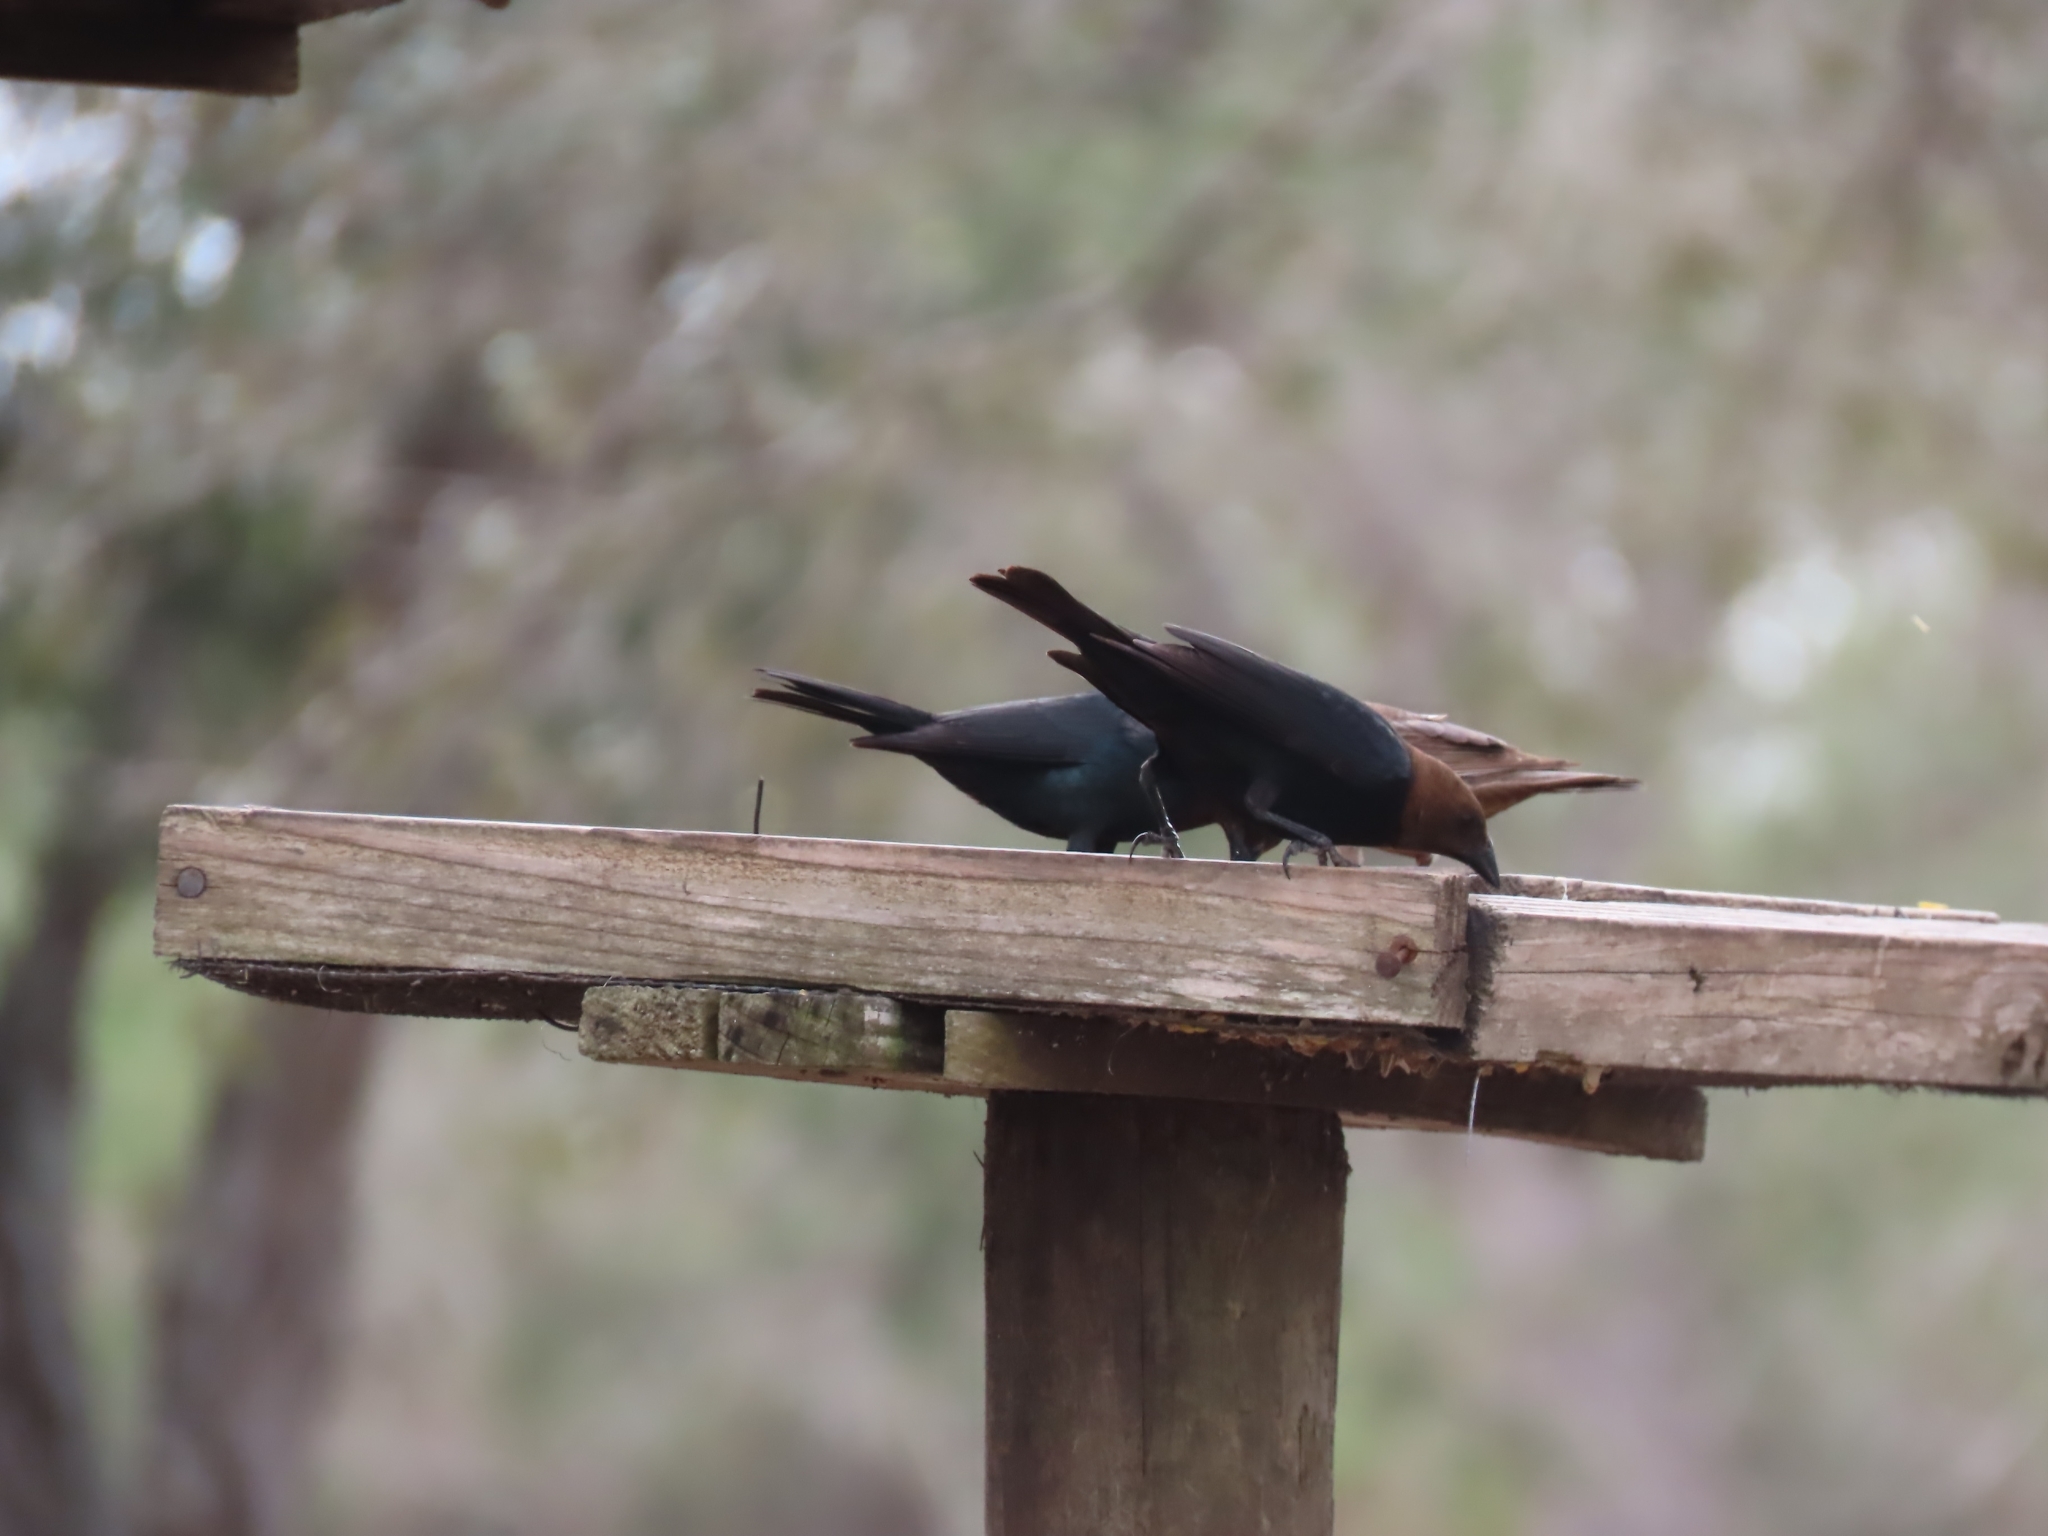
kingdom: Animalia
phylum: Chordata
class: Aves
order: Passeriformes
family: Icteridae
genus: Molothrus
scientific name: Molothrus ater
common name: Brown-headed cowbird
